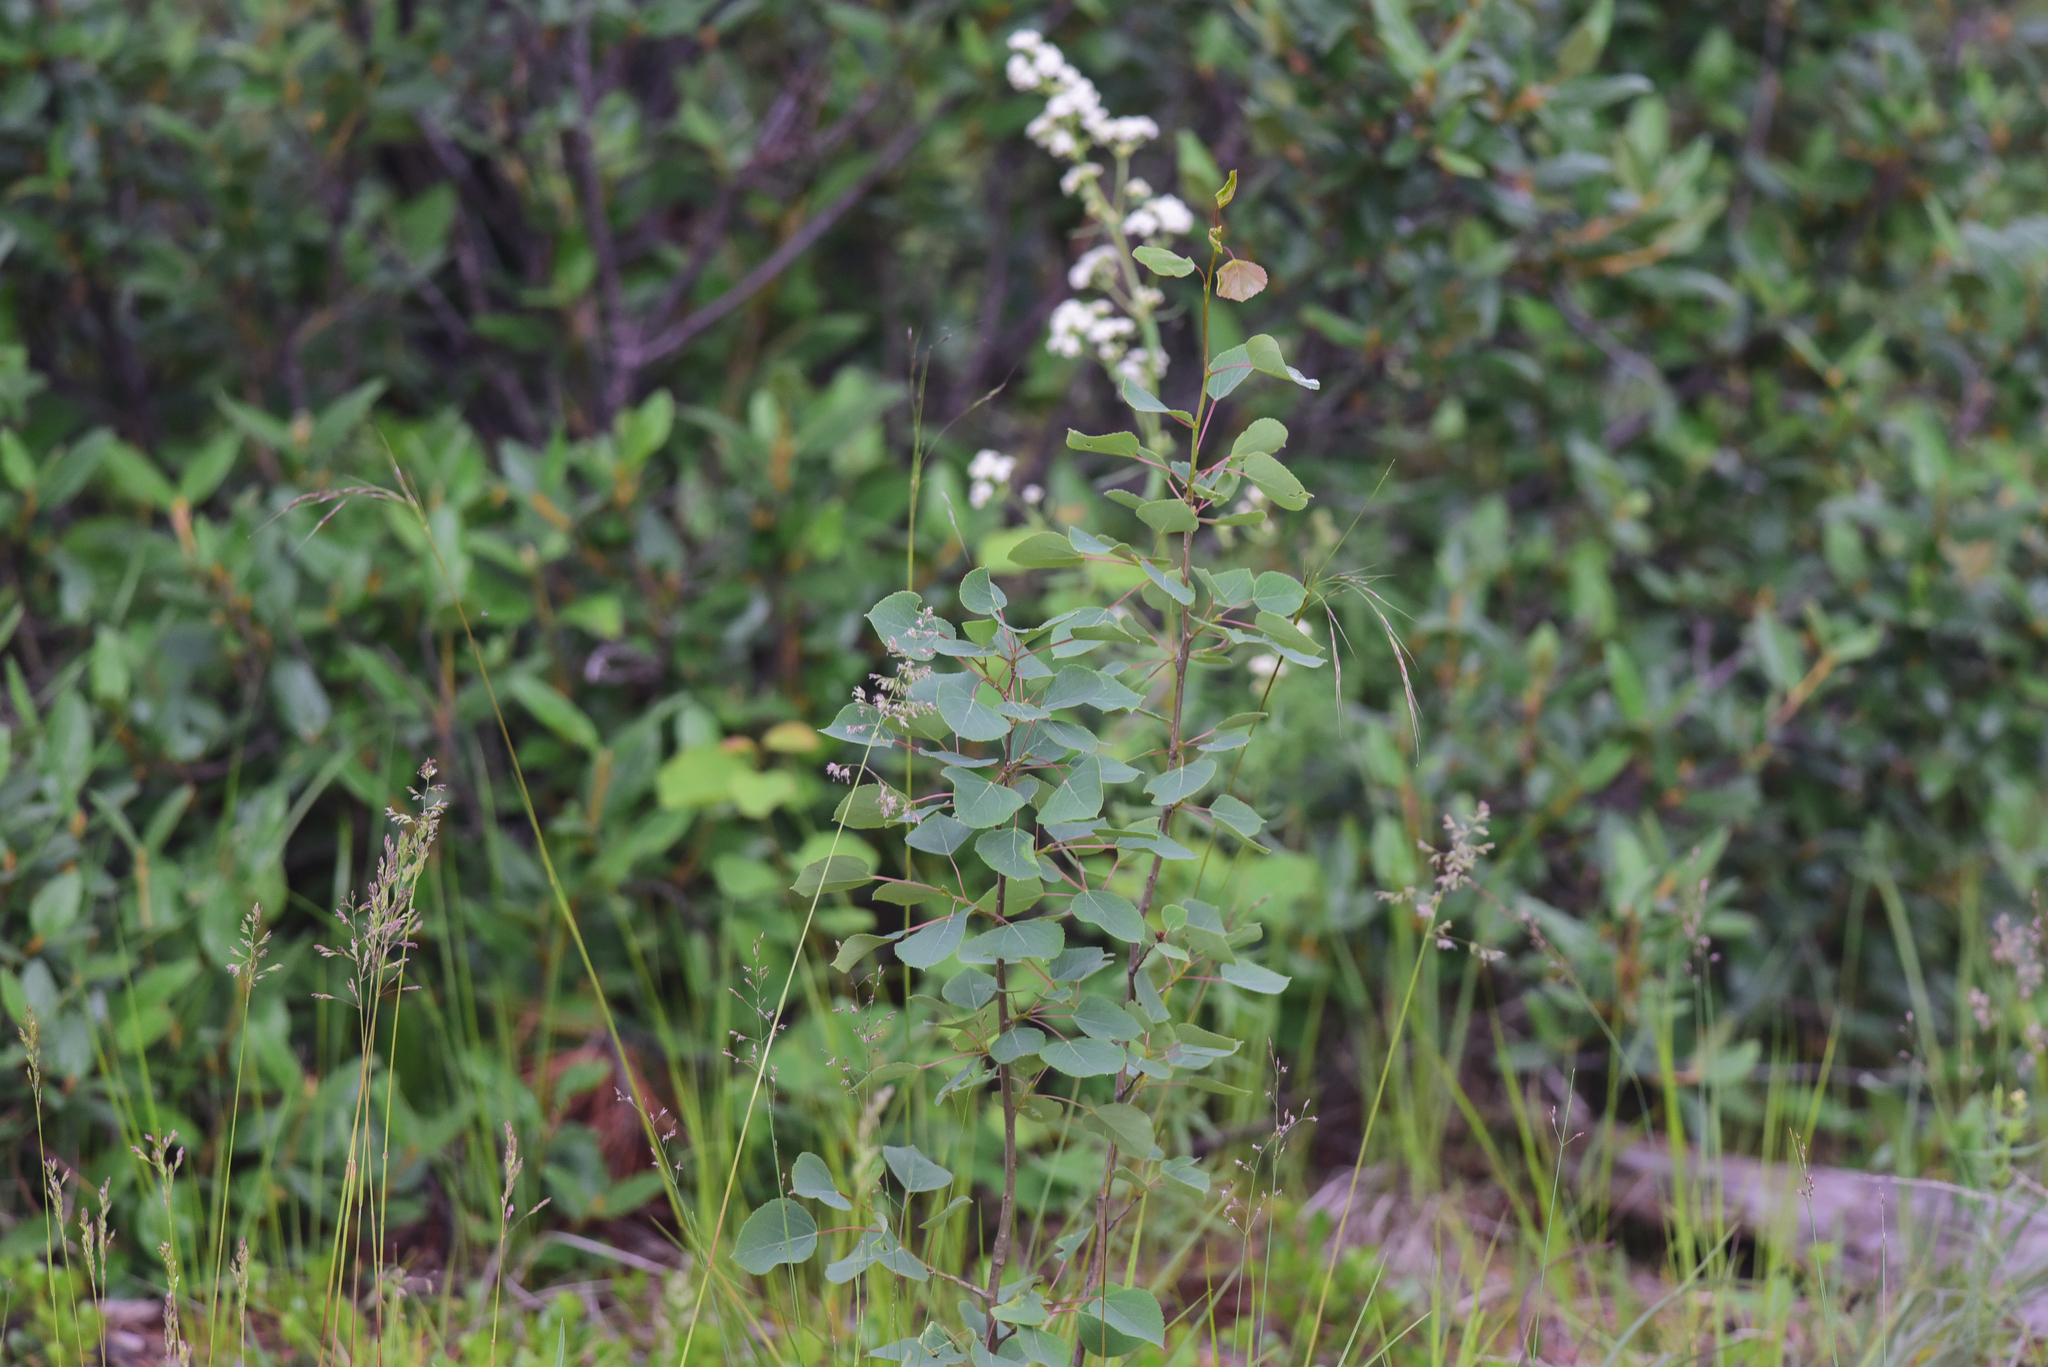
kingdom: Plantae
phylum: Tracheophyta
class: Magnoliopsida
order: Malpighiales
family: Salicaceae
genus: Populus
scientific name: Populus tremuloides
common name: Quaking aspen
